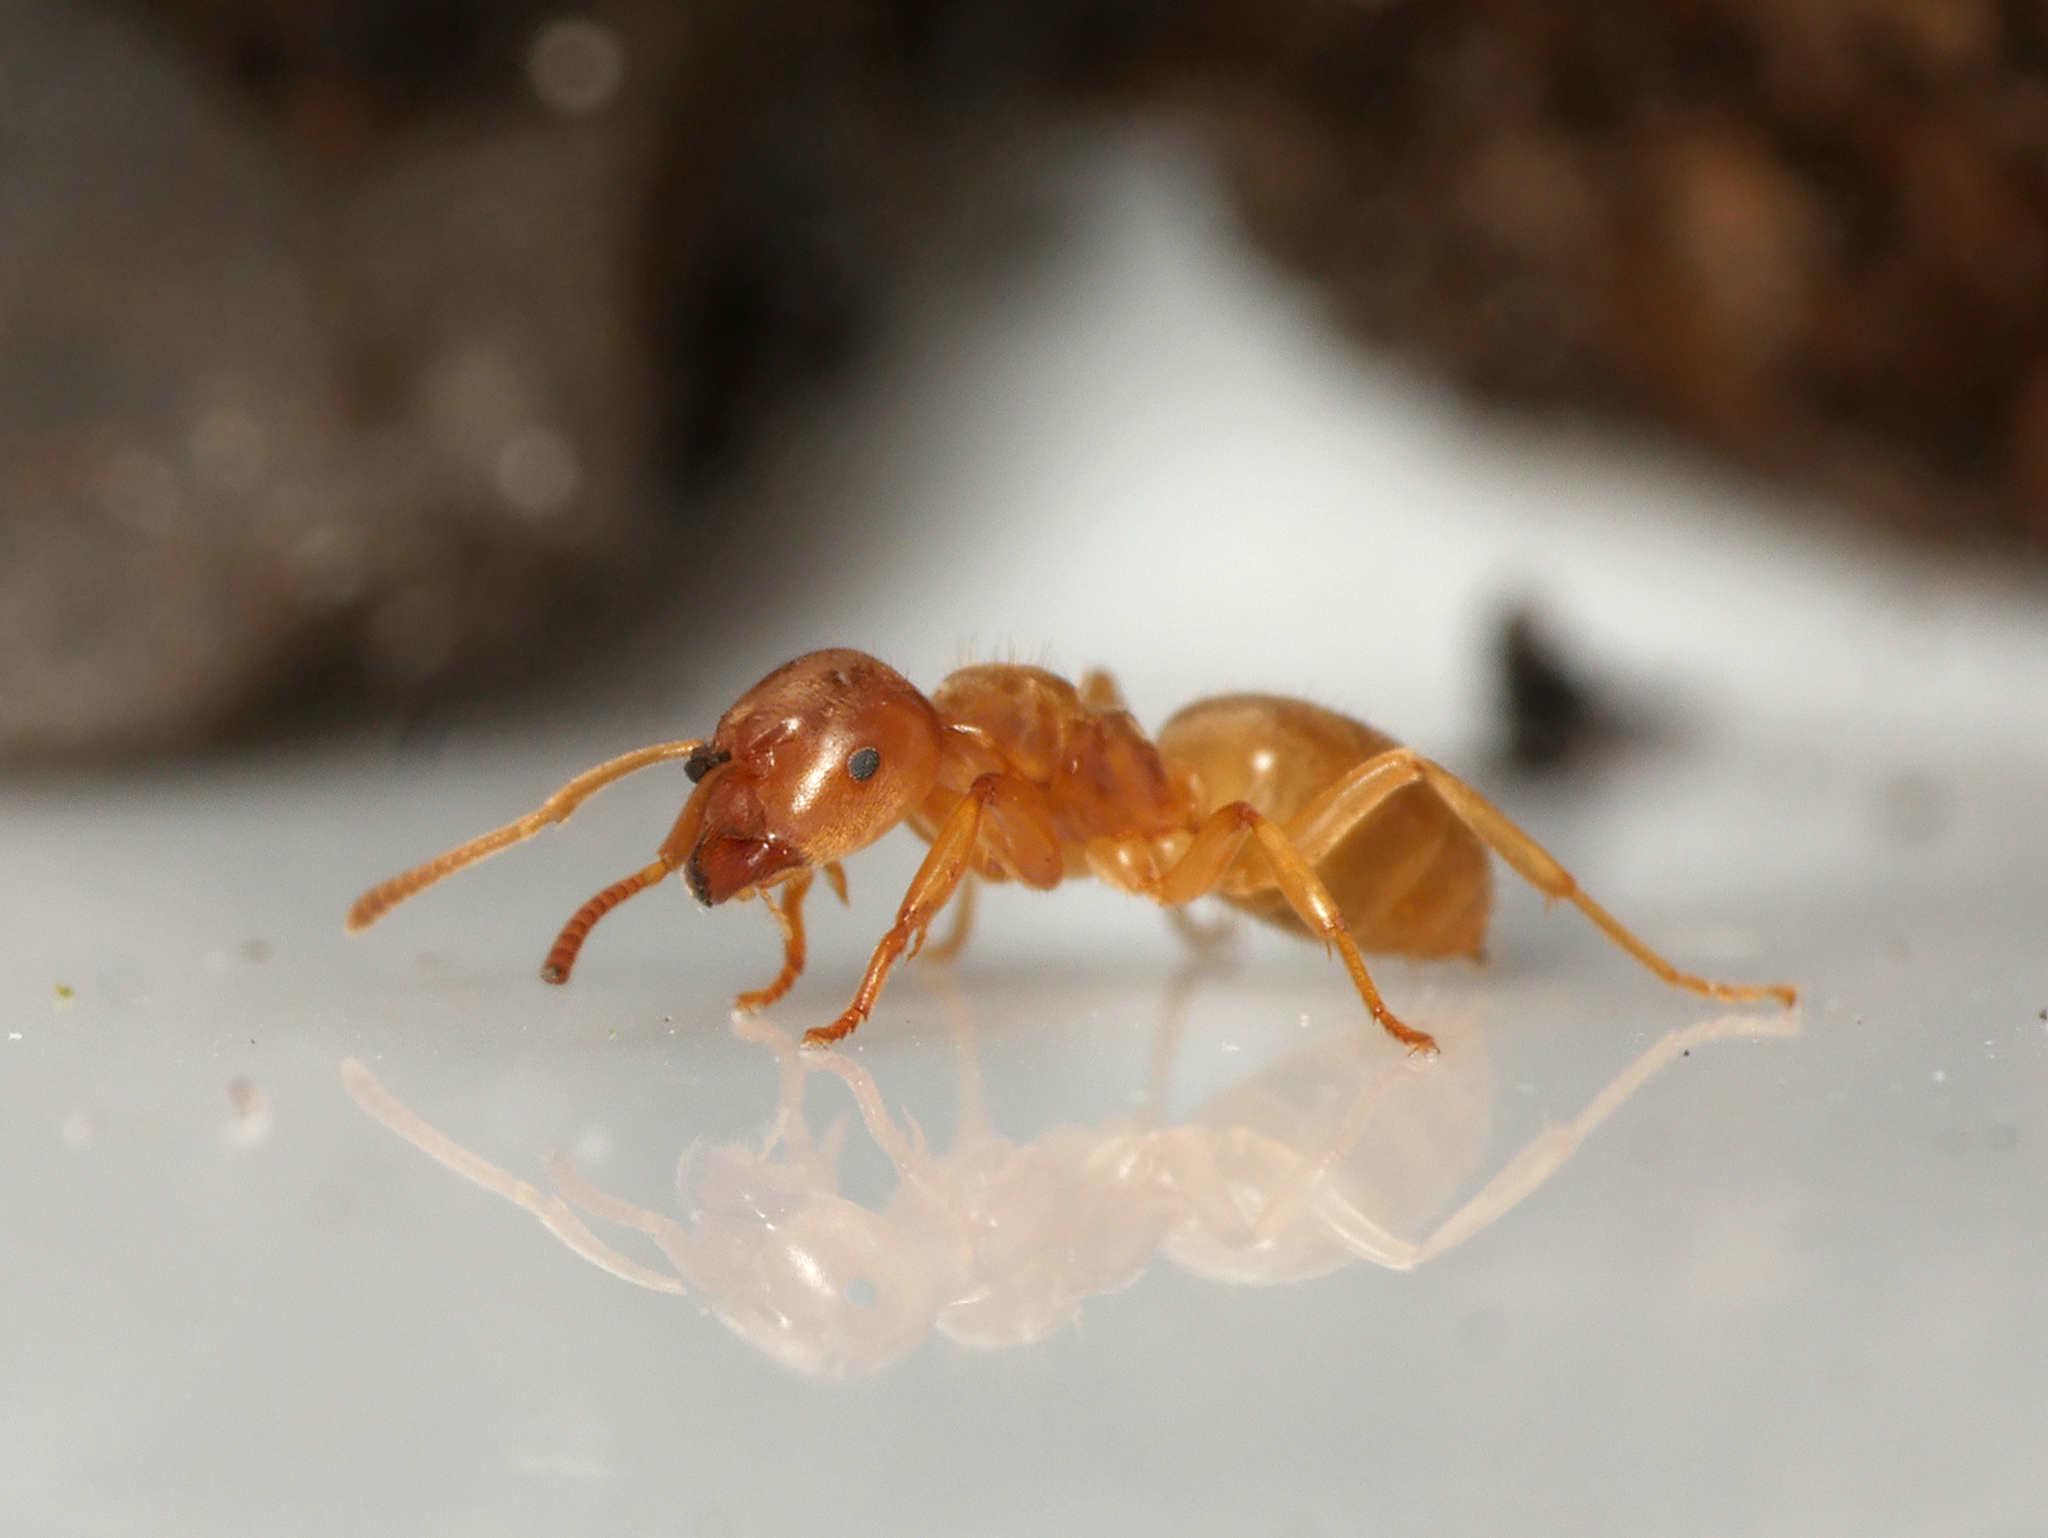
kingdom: Animalia
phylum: Arthropoda
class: Insecta
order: Hymenoptera
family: Formicidae
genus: Lasius
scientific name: Lasius flavus
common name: Blond field ant
